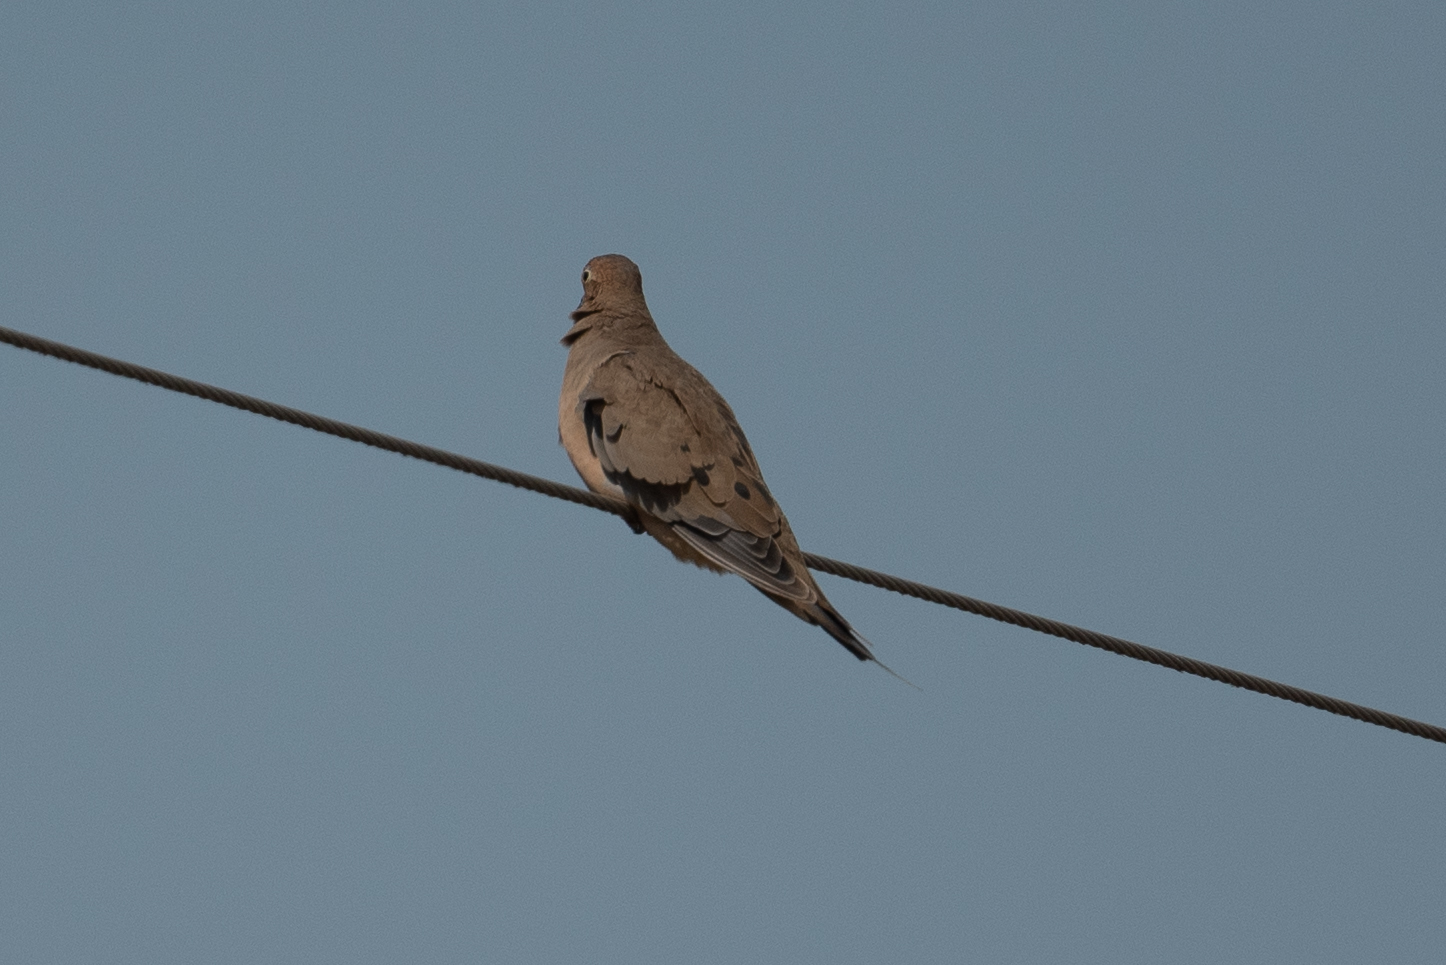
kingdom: Animalia
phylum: Chordata
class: Aves
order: Columbiformes
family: Columbidae
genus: Zenaida
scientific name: Zenaida macroura
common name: Mourning dove
